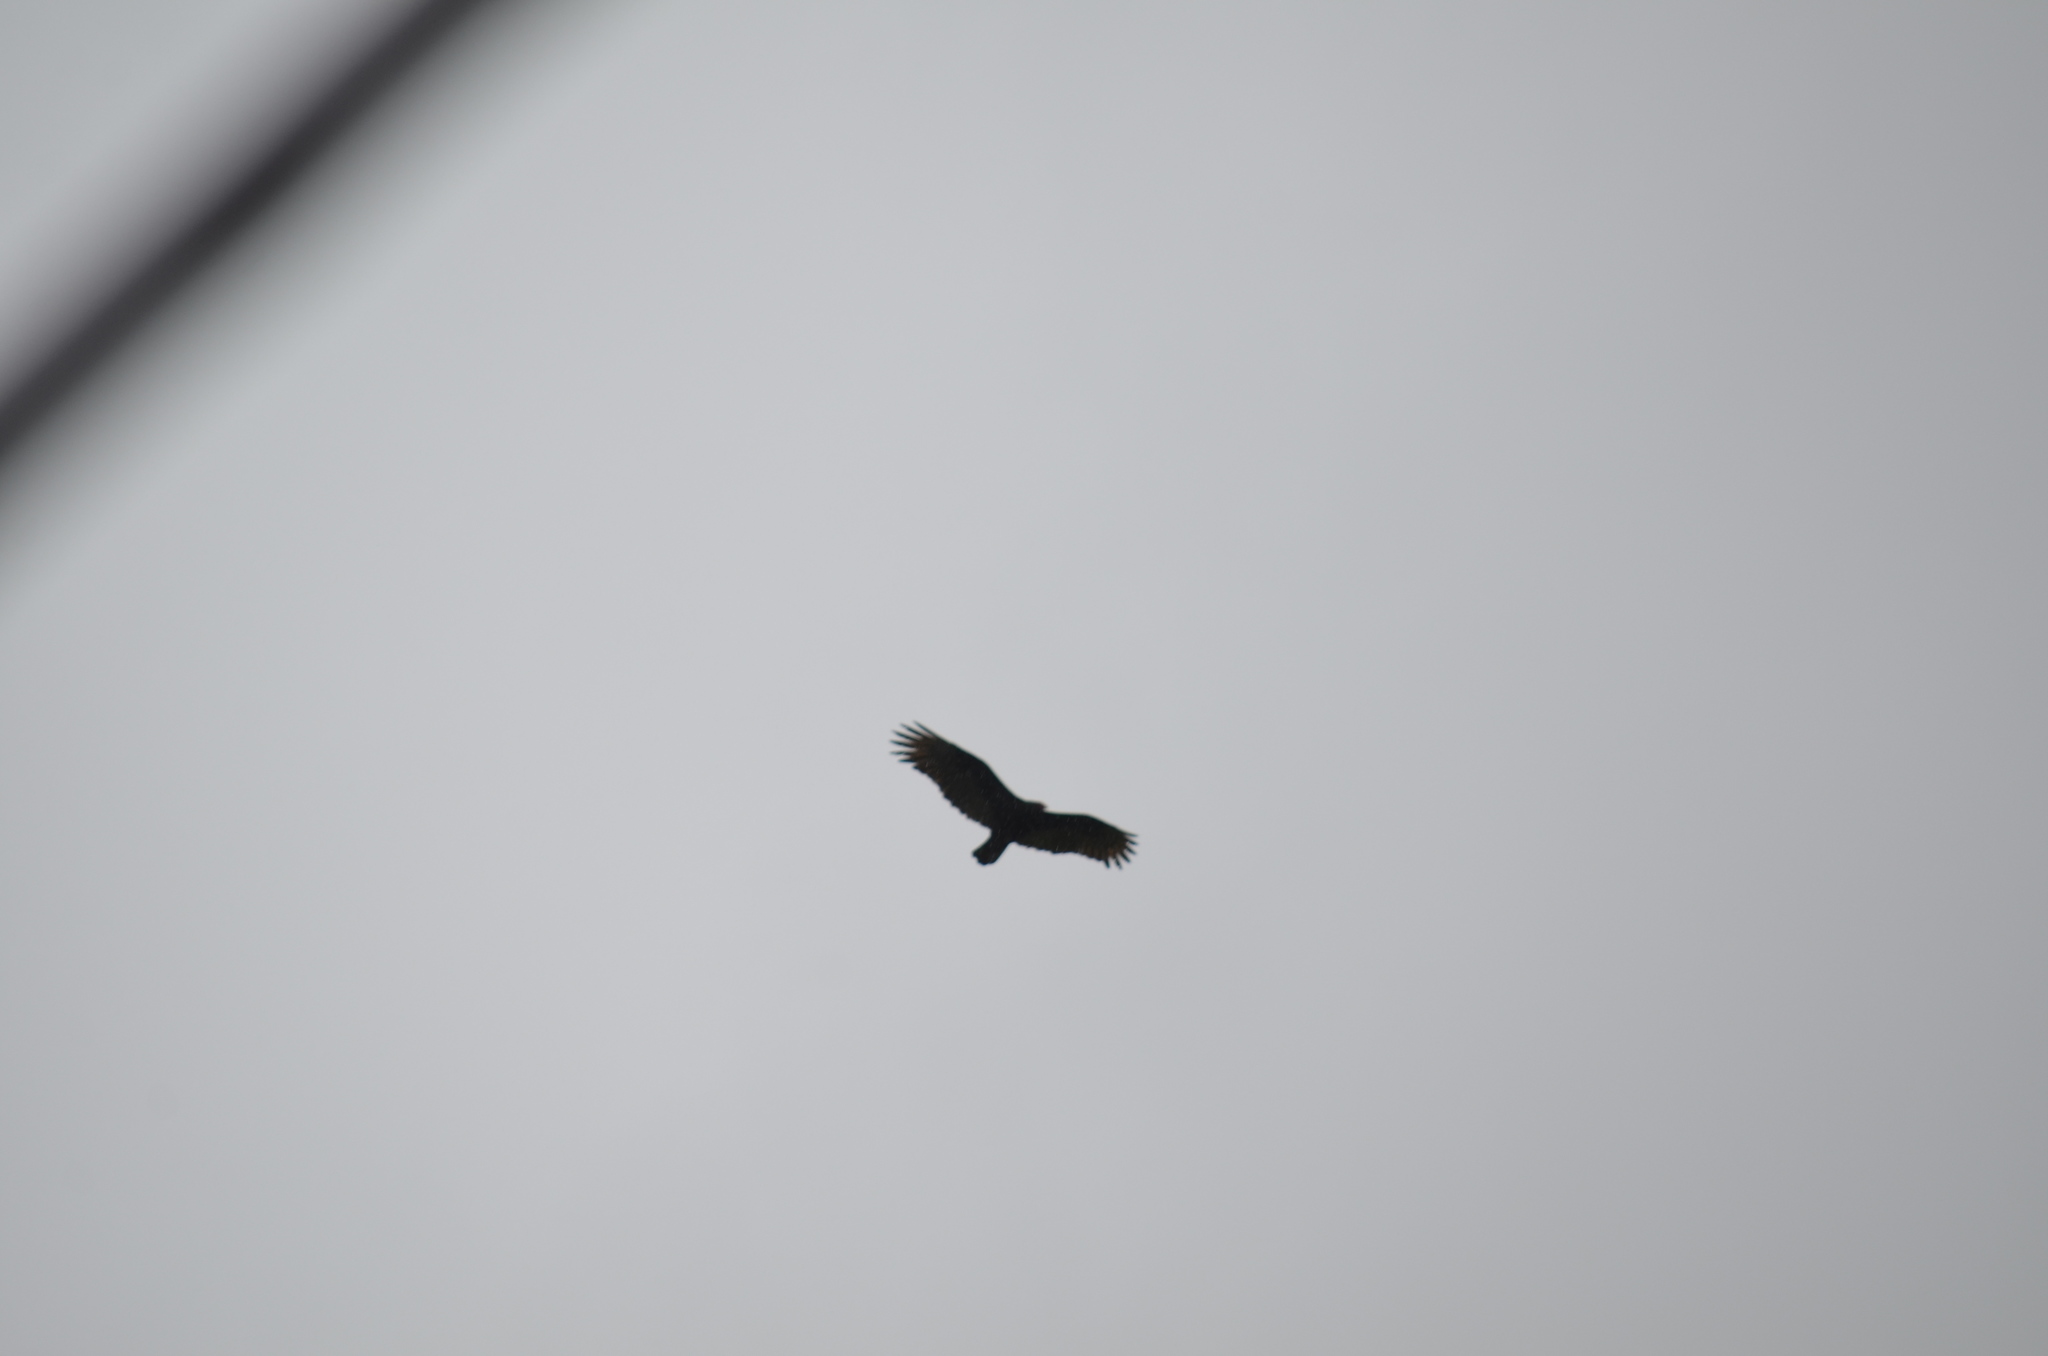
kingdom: Animalia
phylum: Chordata
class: Aves
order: Accipitriformes
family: Cathartidae
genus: Cathartes
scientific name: Cathartes aura
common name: Turkey vulture
